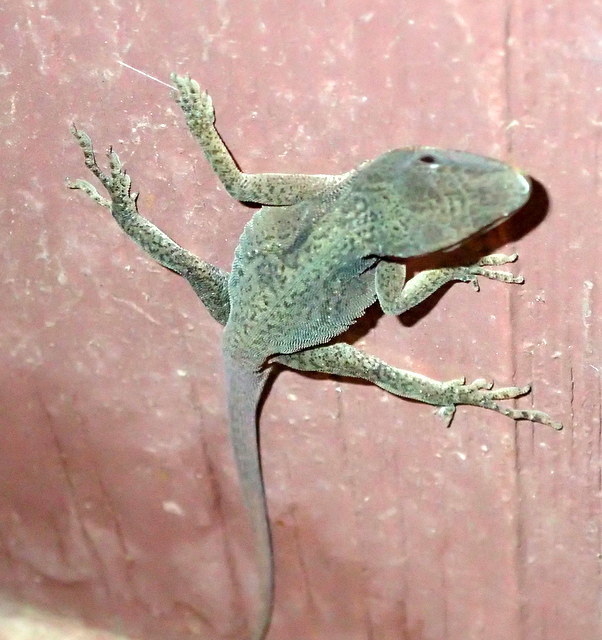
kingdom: Animalia
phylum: Chordata
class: Squamata
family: Dactyloidae
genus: Anolis
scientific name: Anolis carolinensis
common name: Green anole
